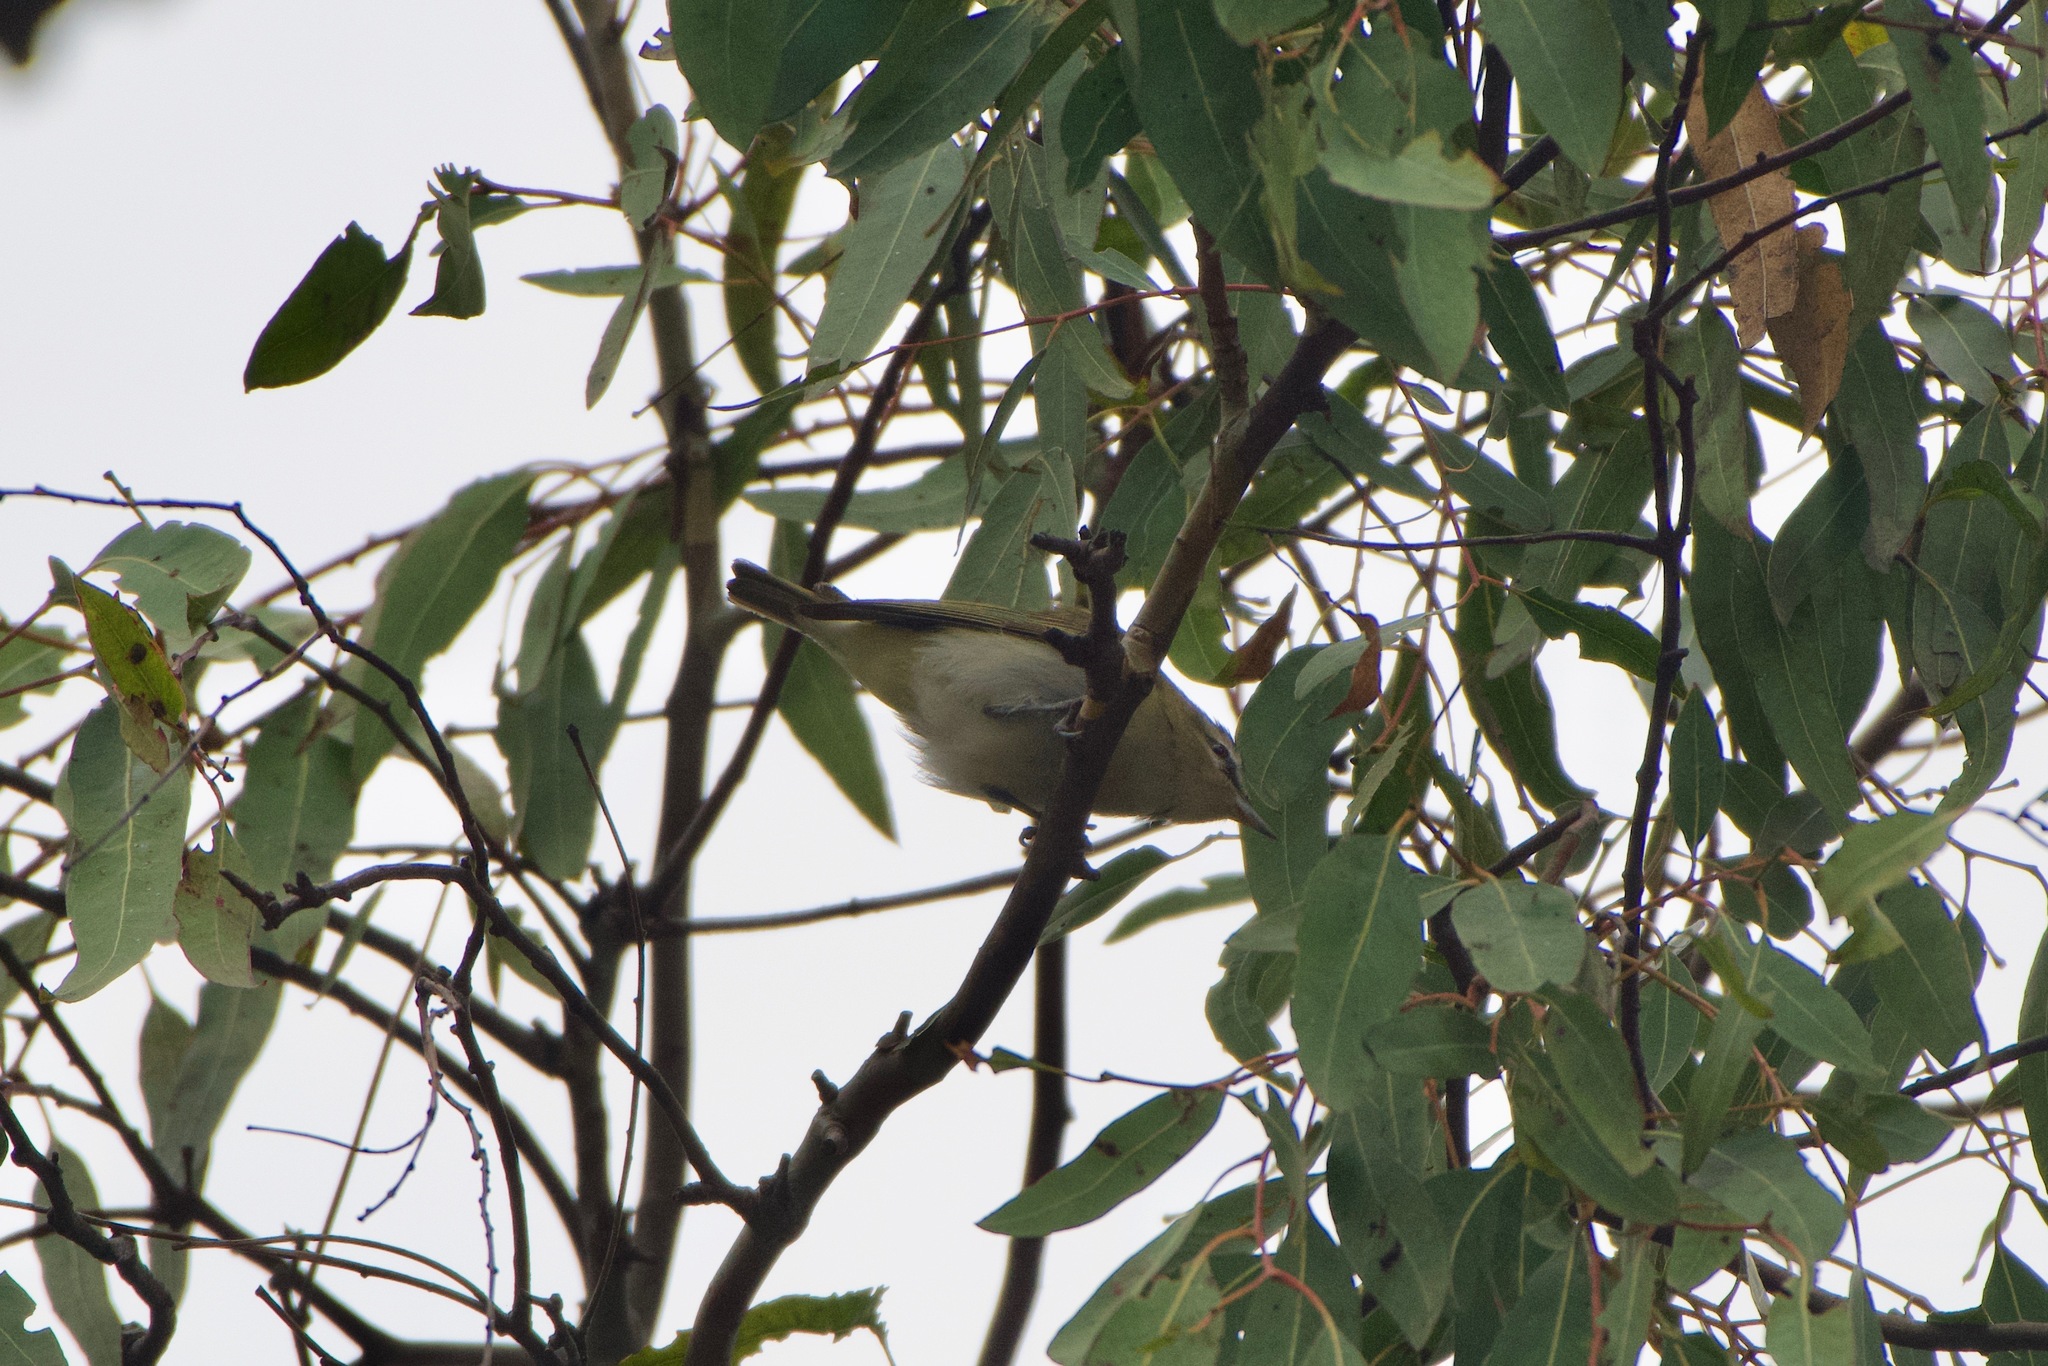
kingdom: Animalia
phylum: Chordata
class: Aves
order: Passeriformes
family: Vireonidae
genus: Vireo
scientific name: Vireo olivaceus
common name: Red-eyed vireo
